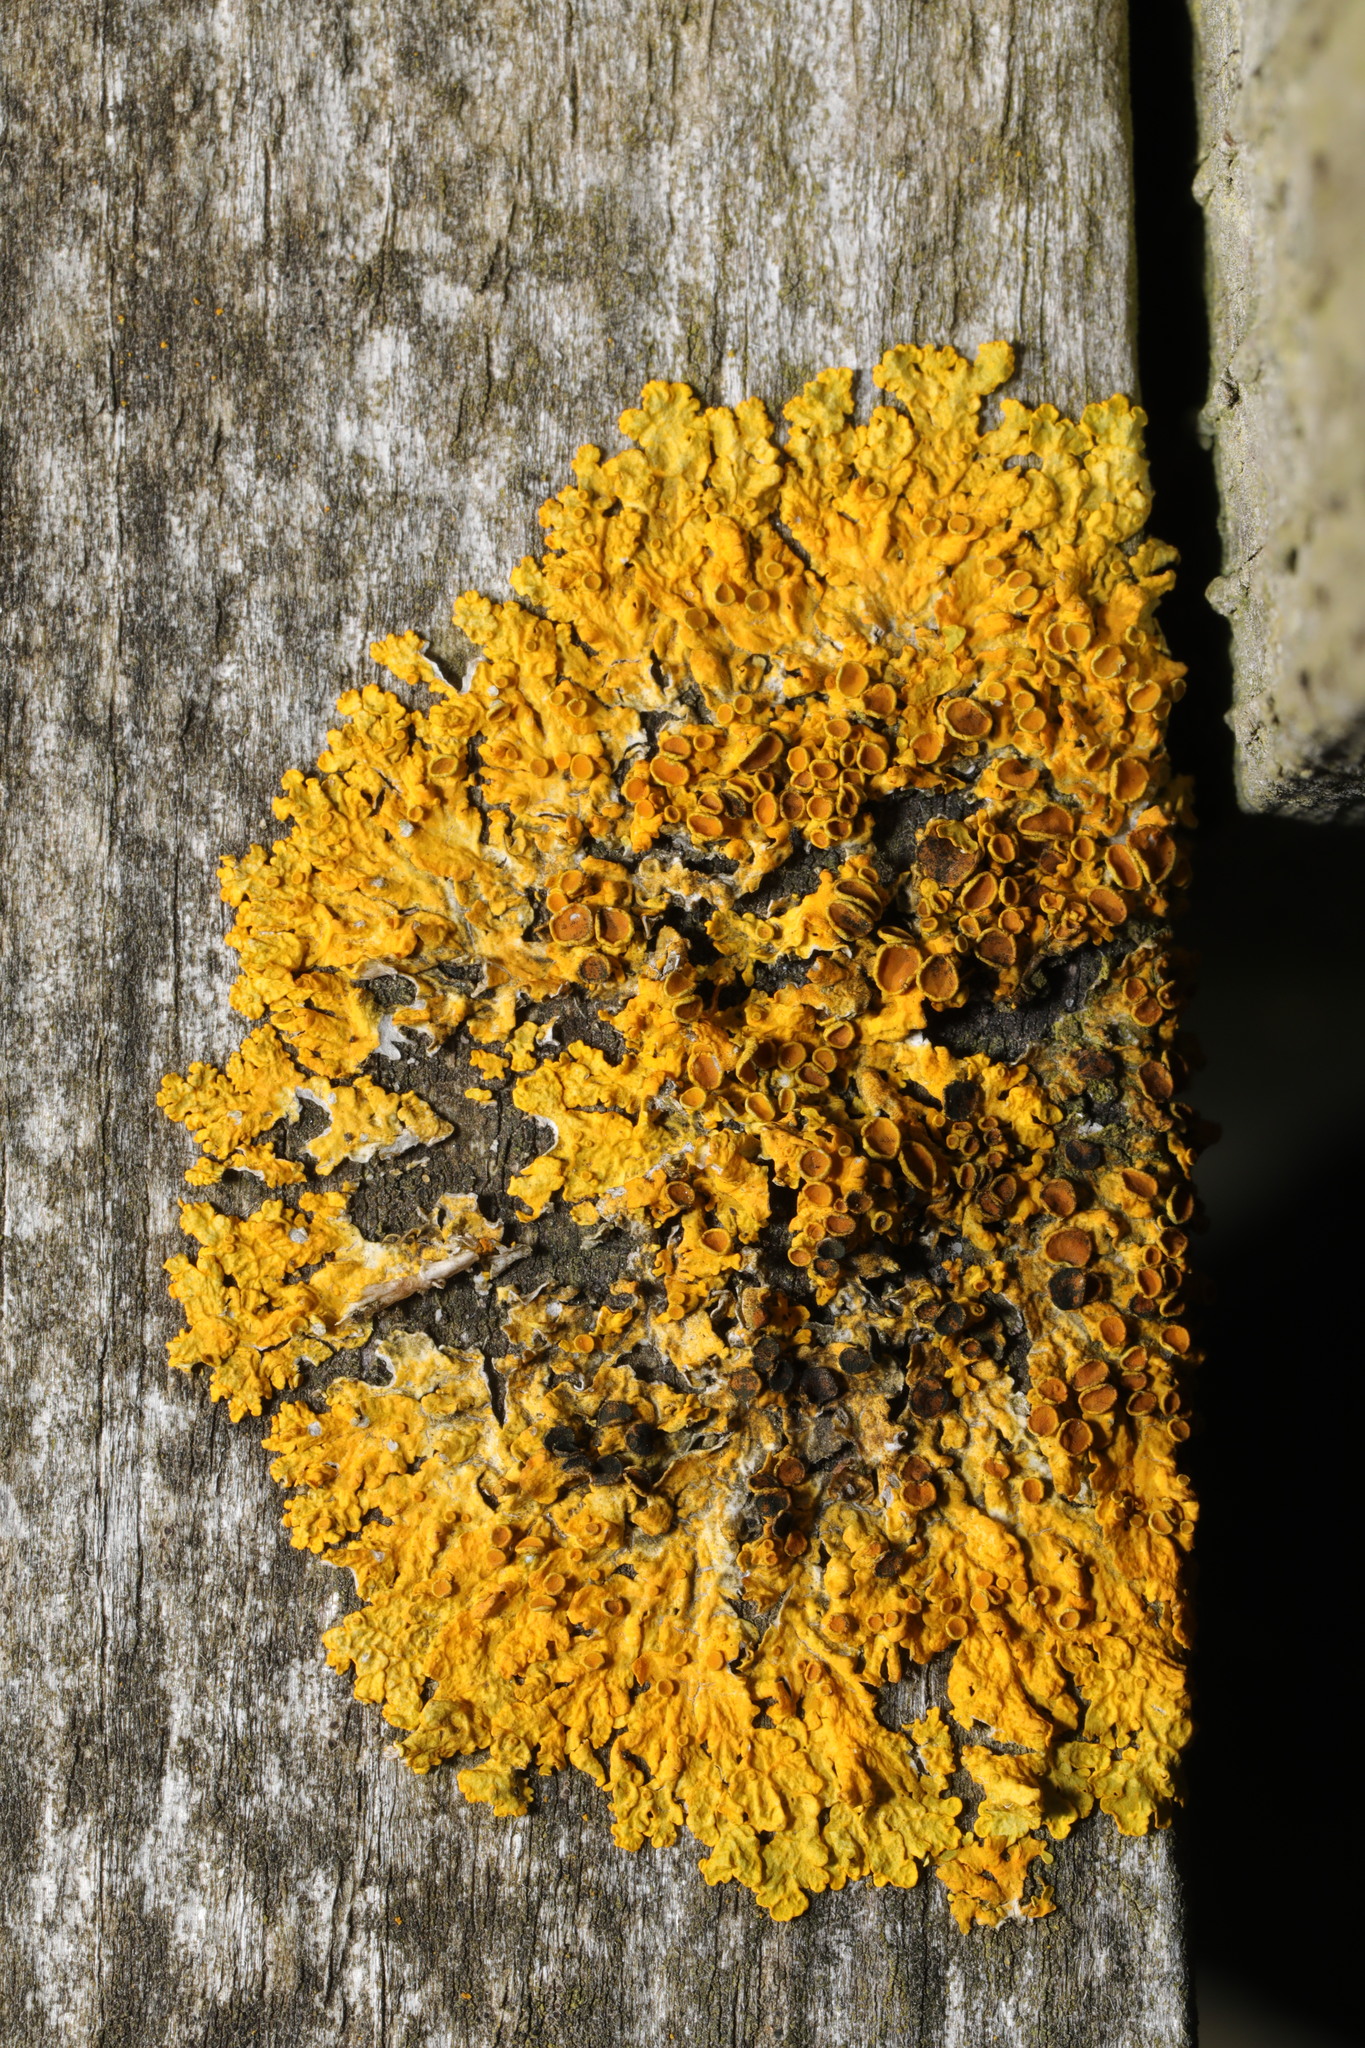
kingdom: Fungi
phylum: Ascomycota
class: Lecanoromycetes
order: Teloschistales
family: Teloschistaceae
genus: Xanthoria
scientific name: Xanthoria parietina
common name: Common orange lichen
